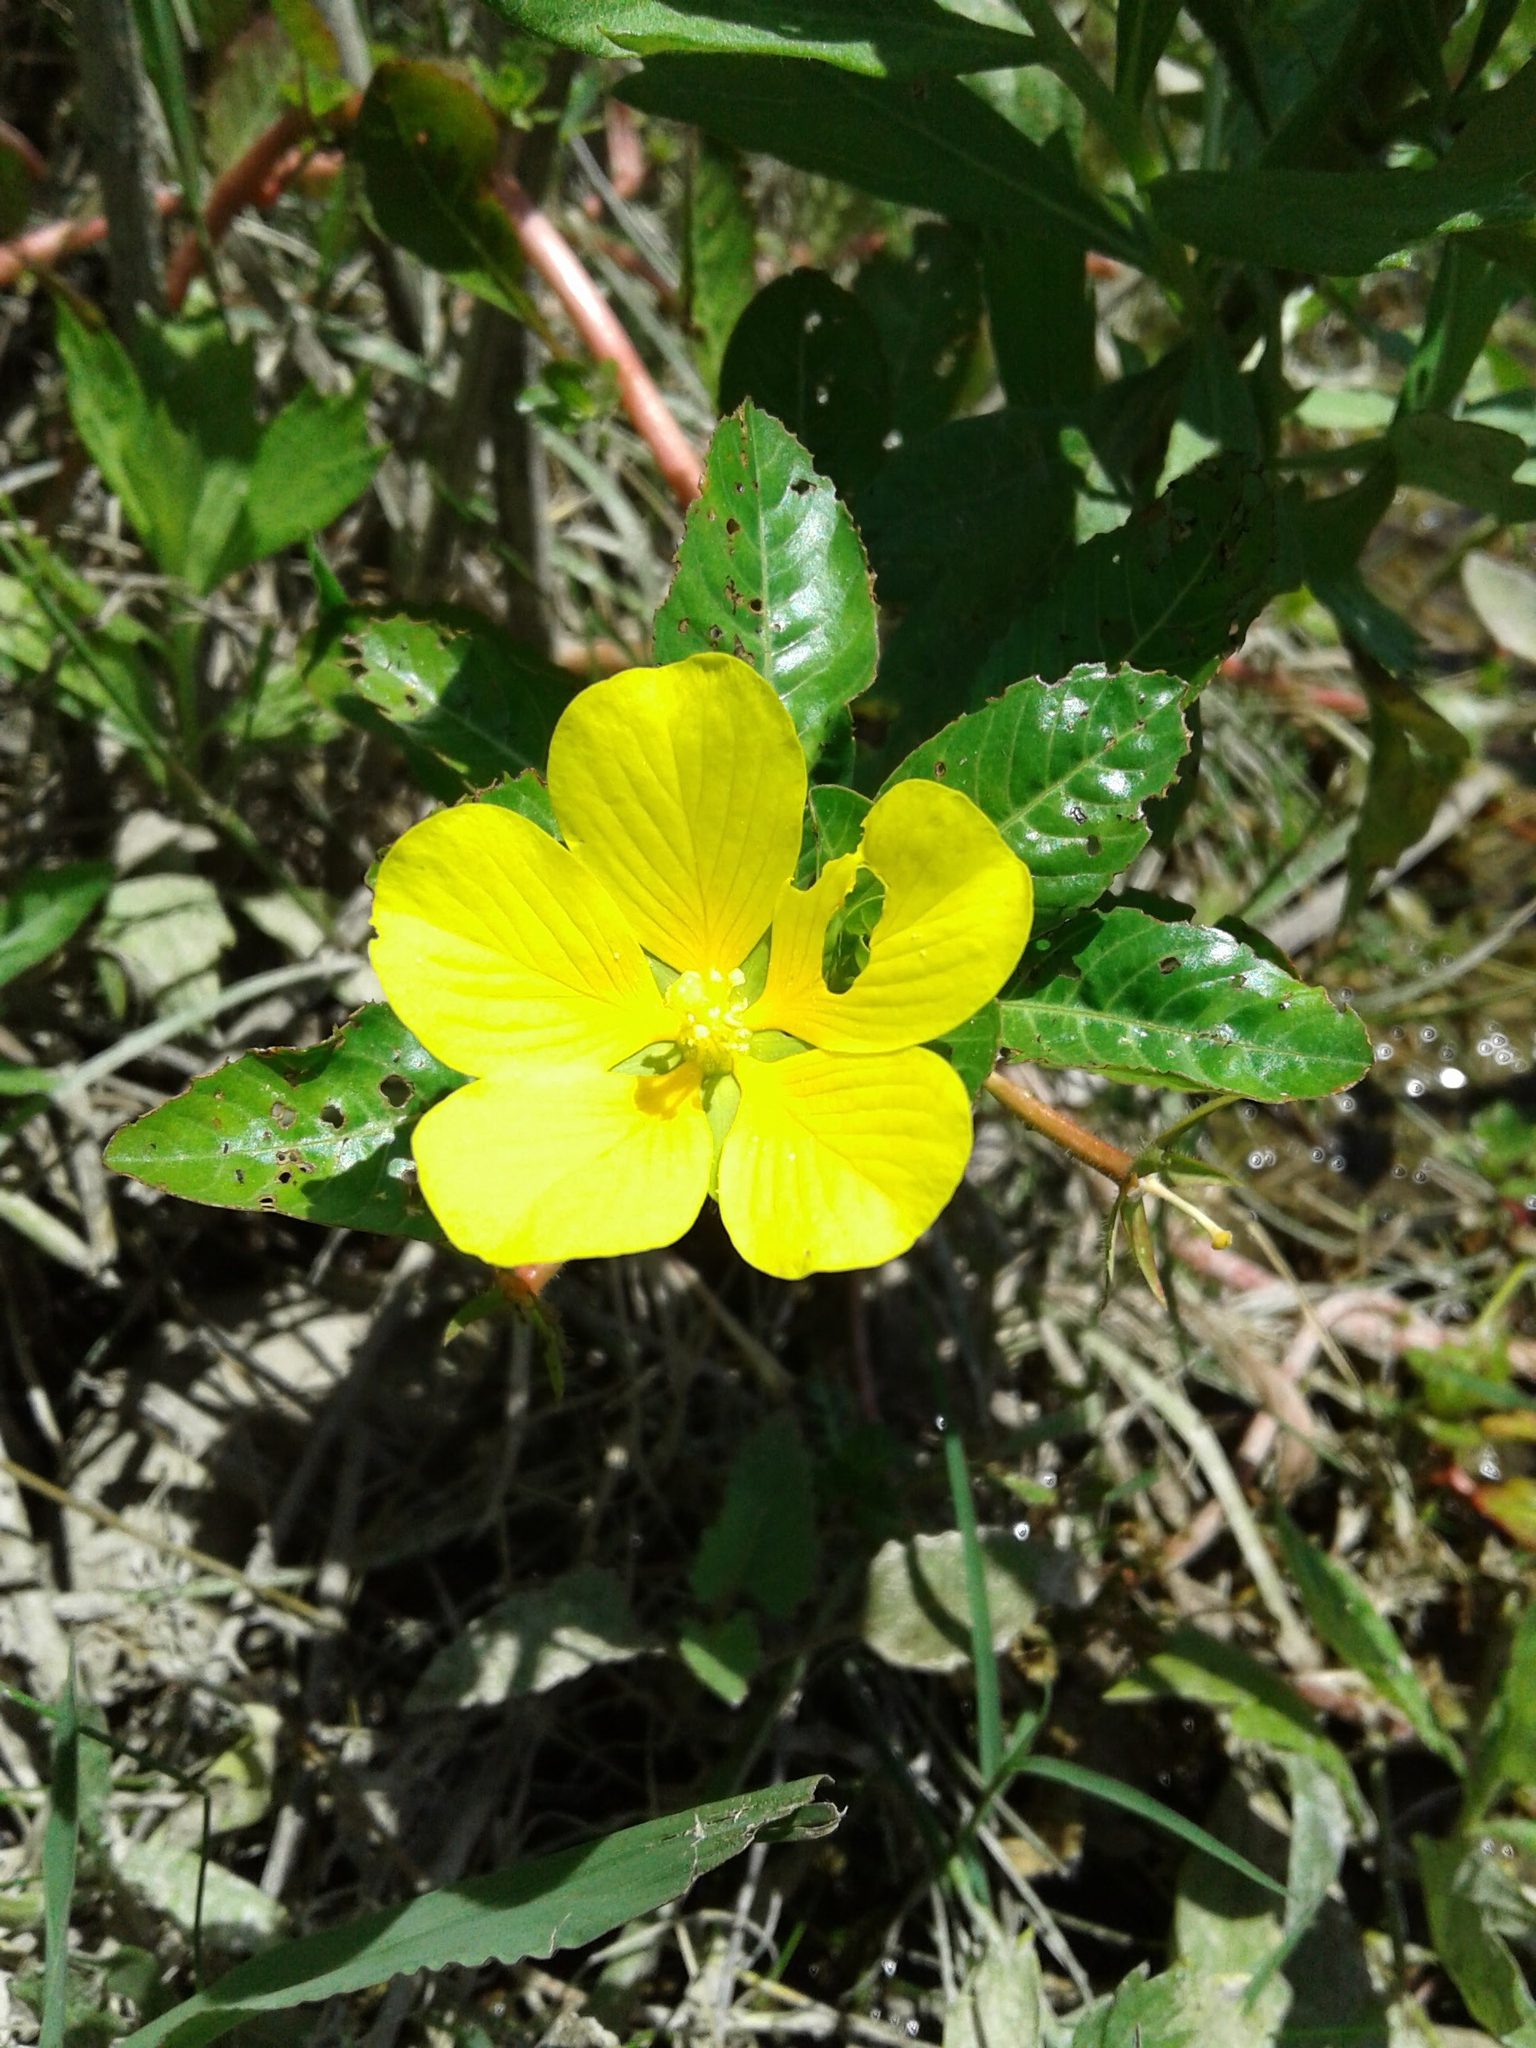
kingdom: Plantae
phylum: Tracheophyta
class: Magnoliopsida
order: Myrtales
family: Onagraceae
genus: Ludwigia
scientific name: Ludwigia peploides
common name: Floating primrose-willow
